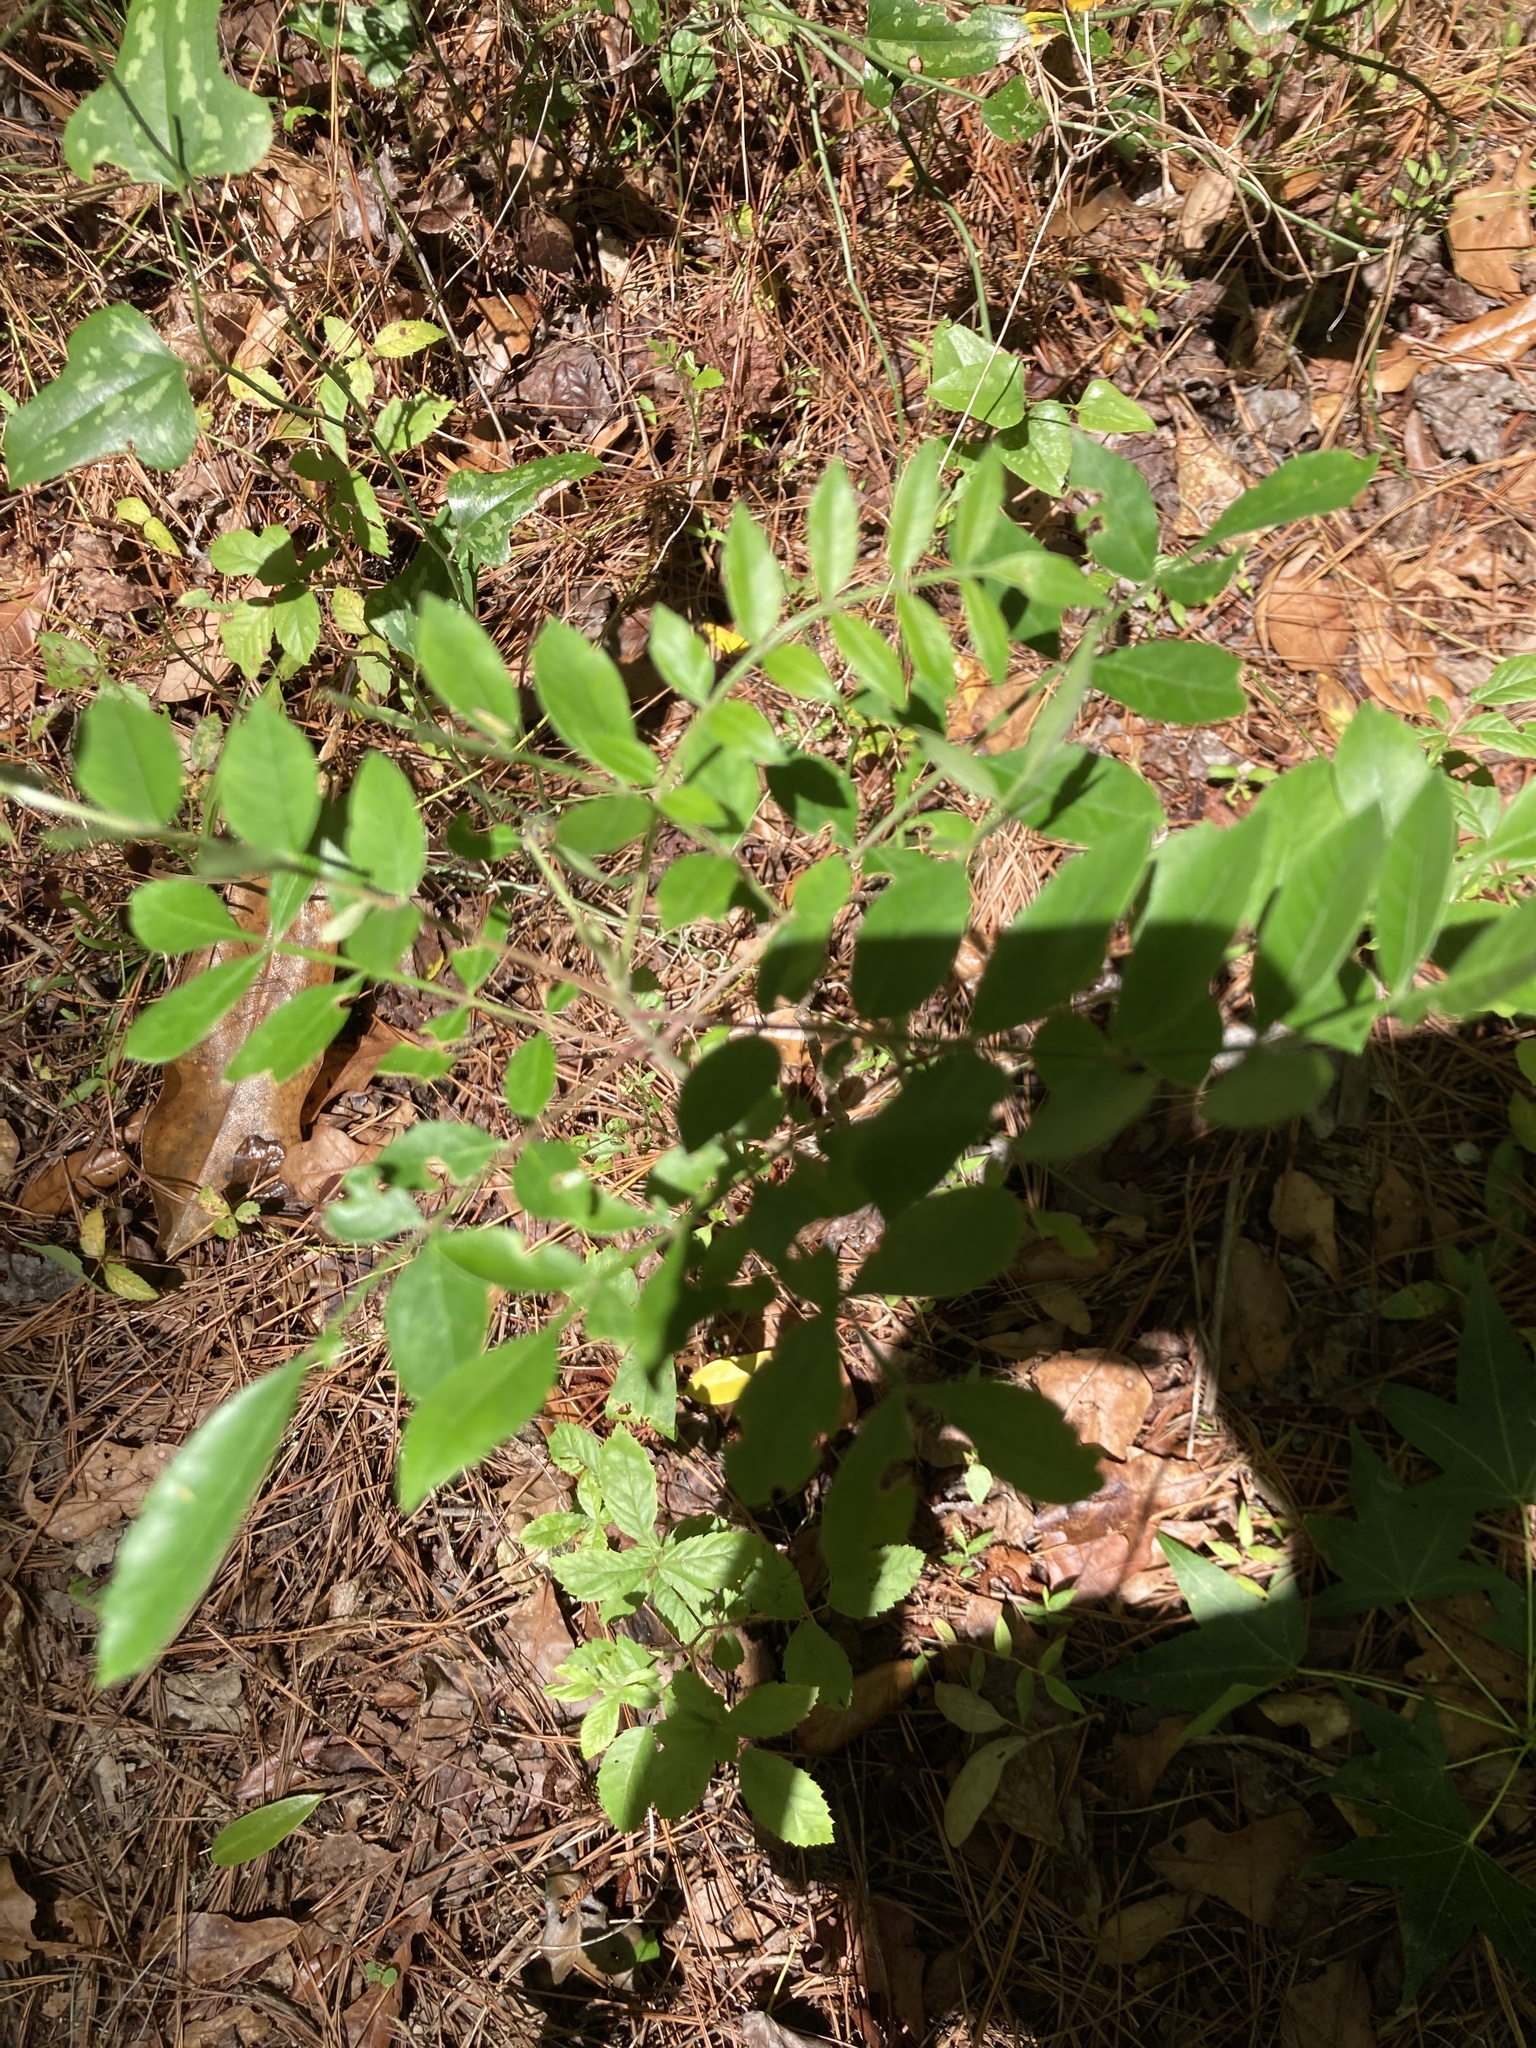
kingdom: Plantae
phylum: Tracheophyta
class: Magnoliopsida
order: Sapindales
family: Anacardiaceae
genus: Rhus
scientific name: Rhus copallina
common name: Shining sumac
